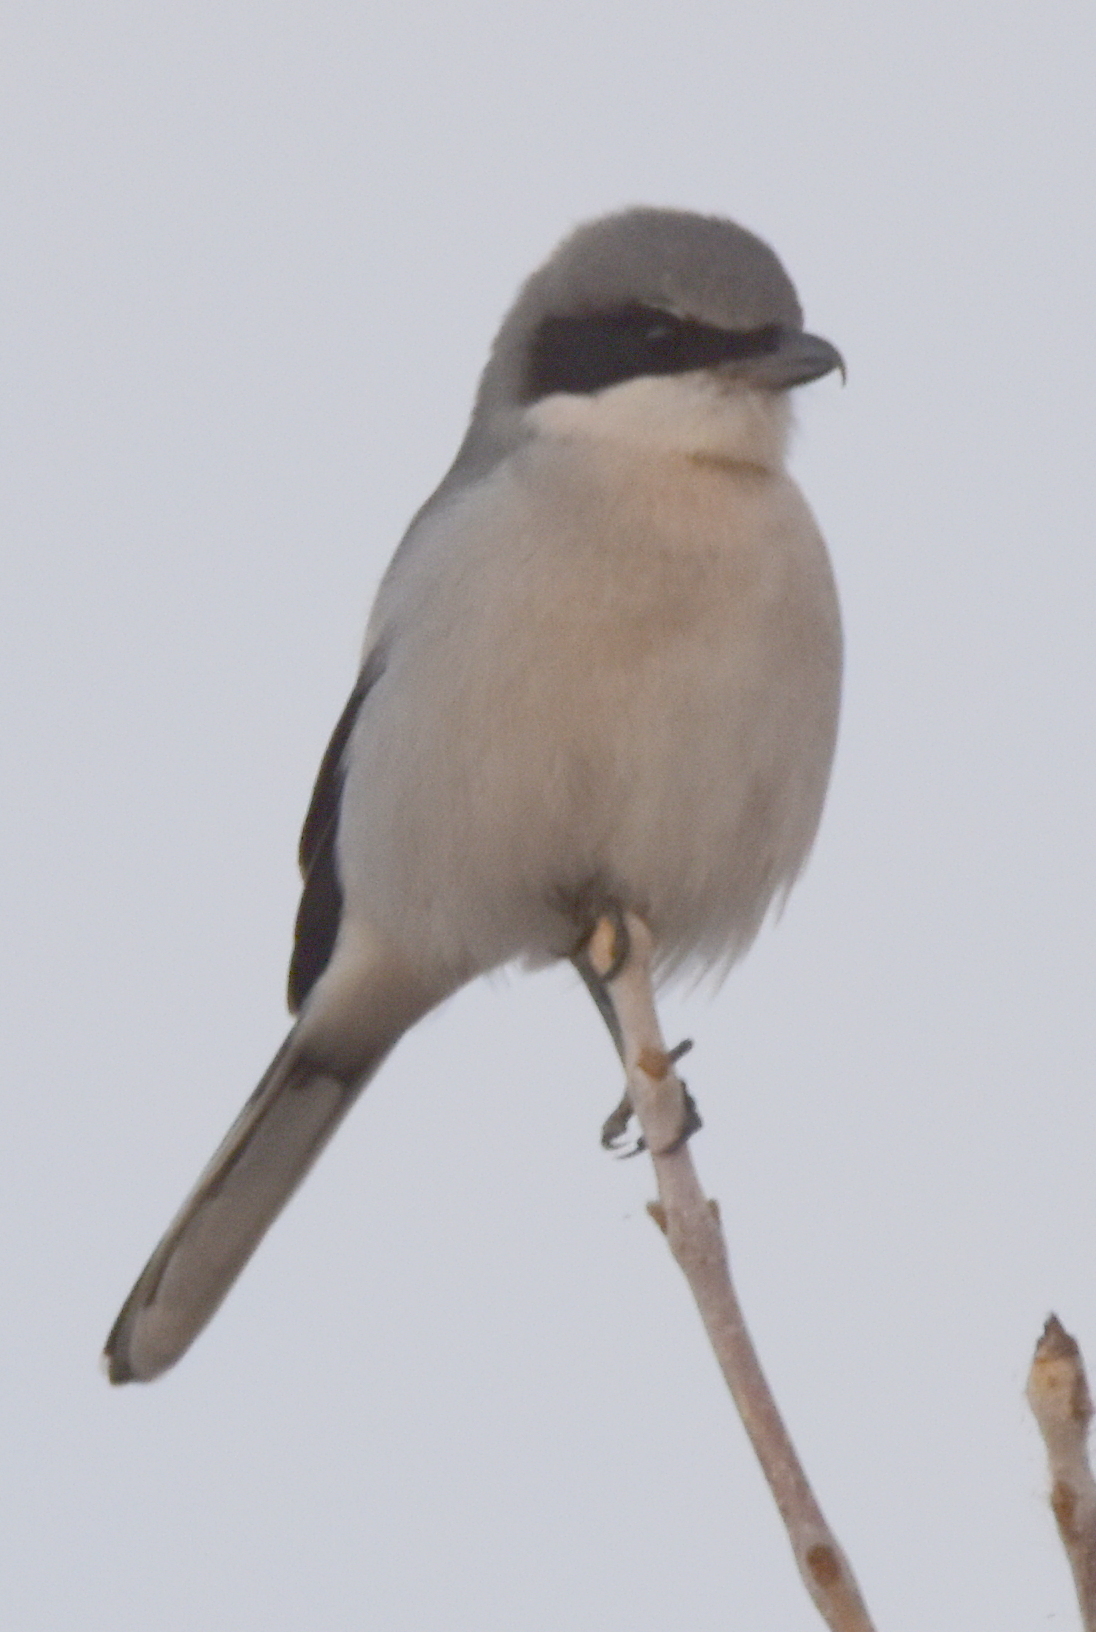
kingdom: Animalia
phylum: Chordata
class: Aves
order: Passeriformes
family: Laniidae
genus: Lanius
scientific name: Lanius ludovicianus
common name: Loggerhead shrike
